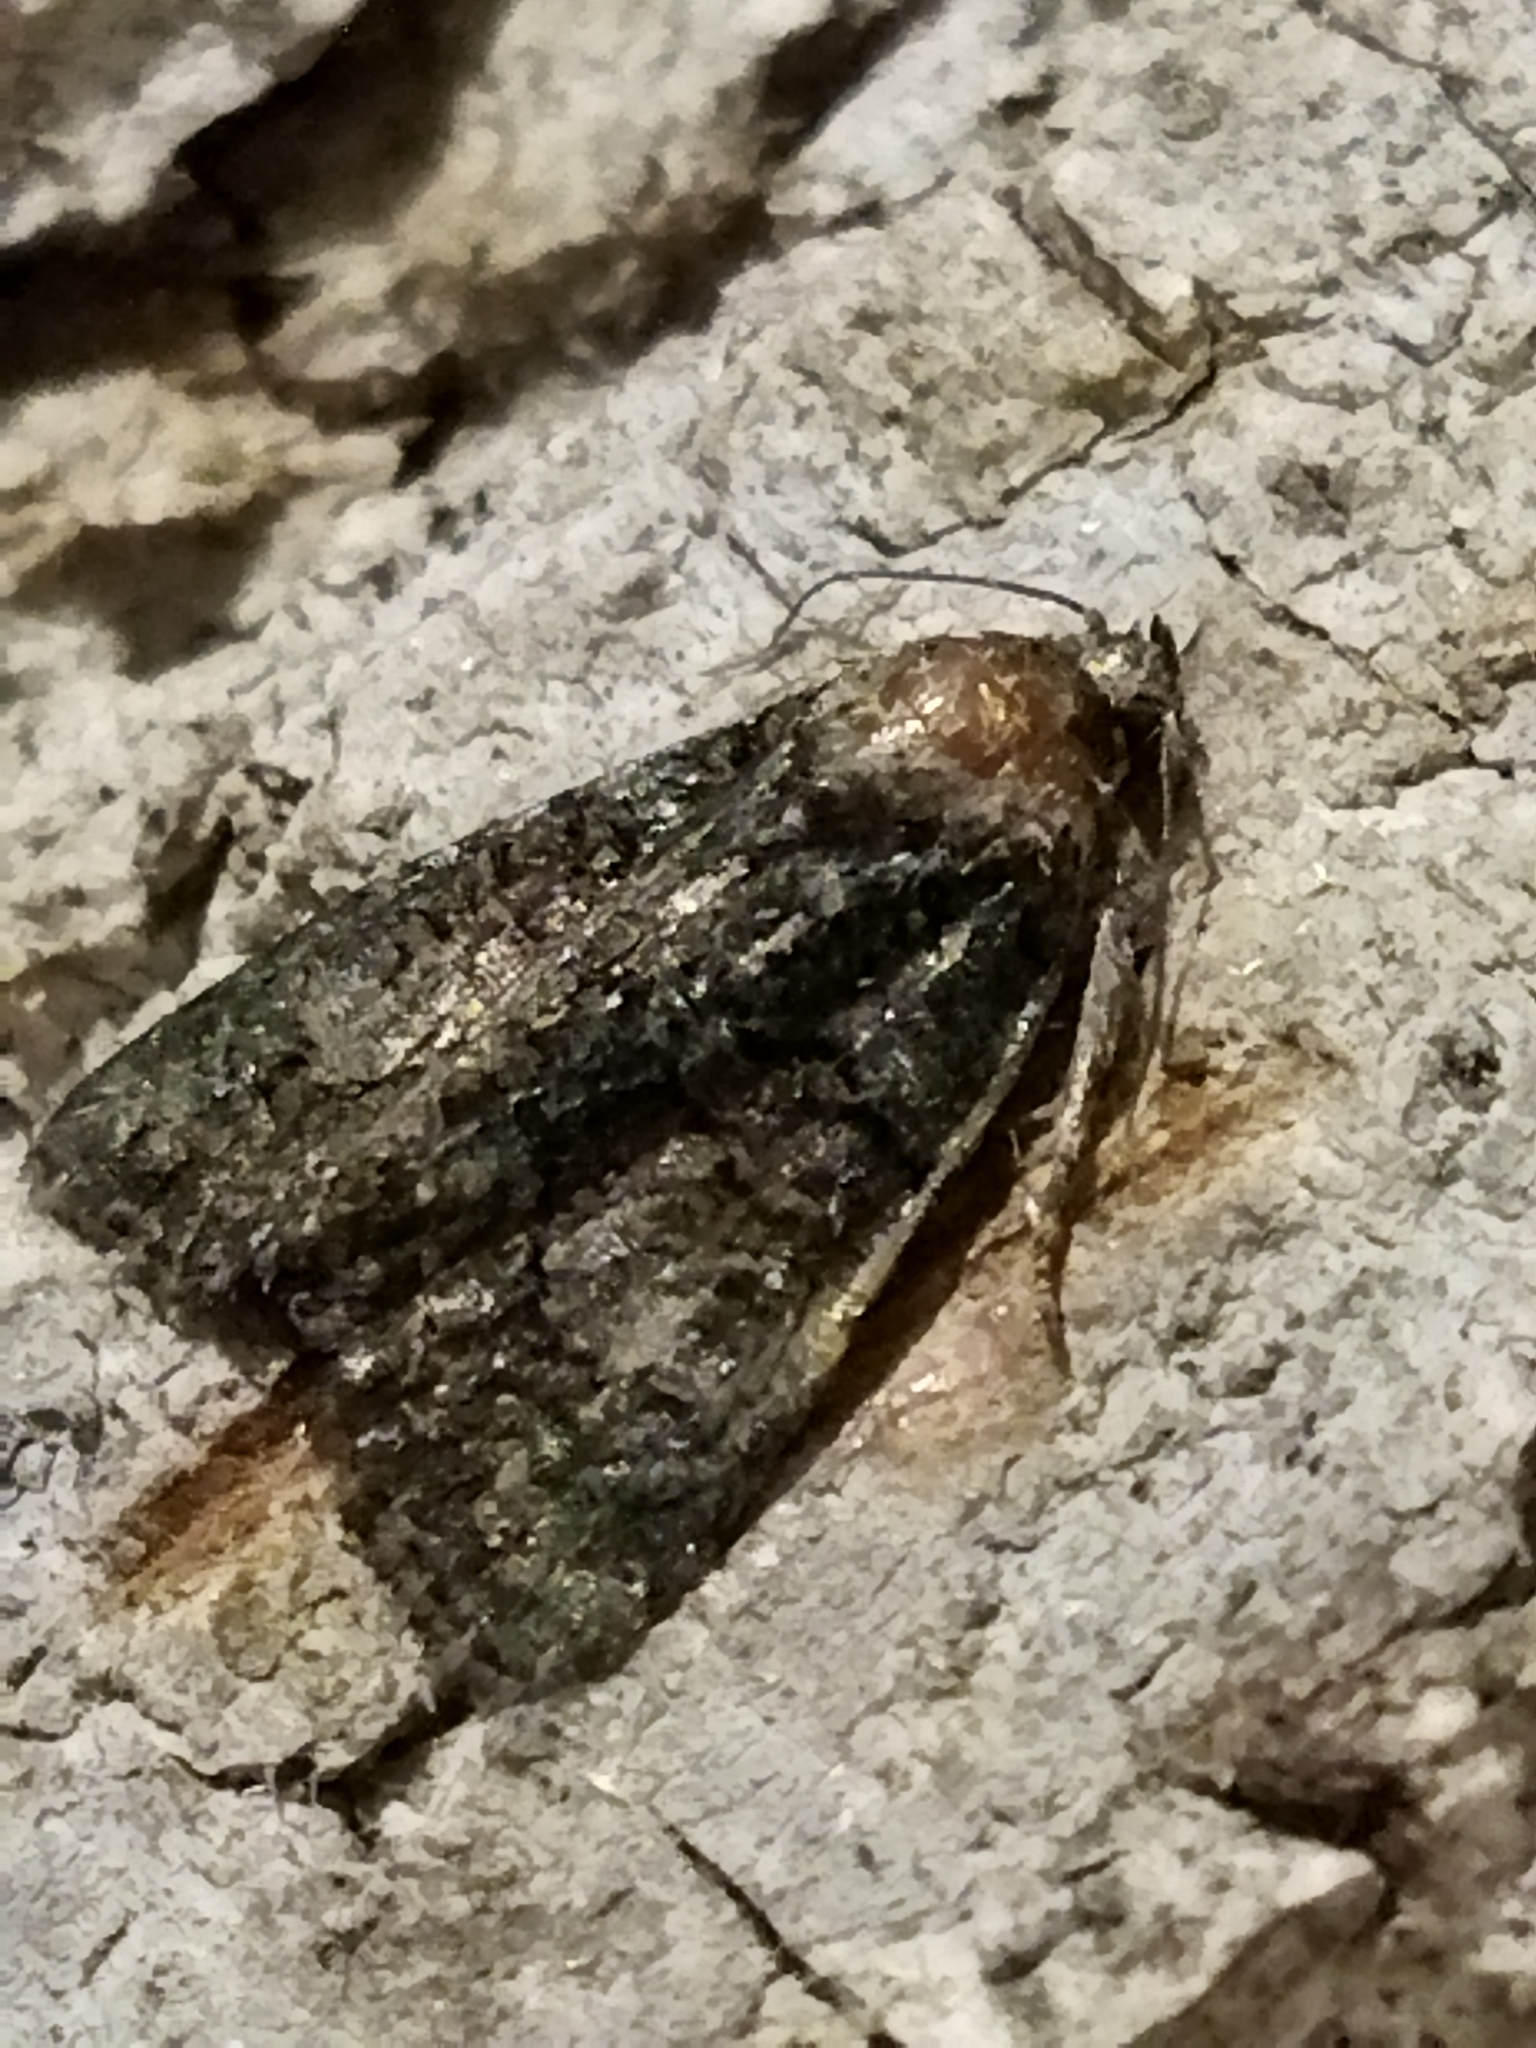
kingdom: Animalia
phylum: Arthropoda
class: Insecta
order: Lepidoptera
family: Noctuidae
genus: Cryphia
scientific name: Cryphia
